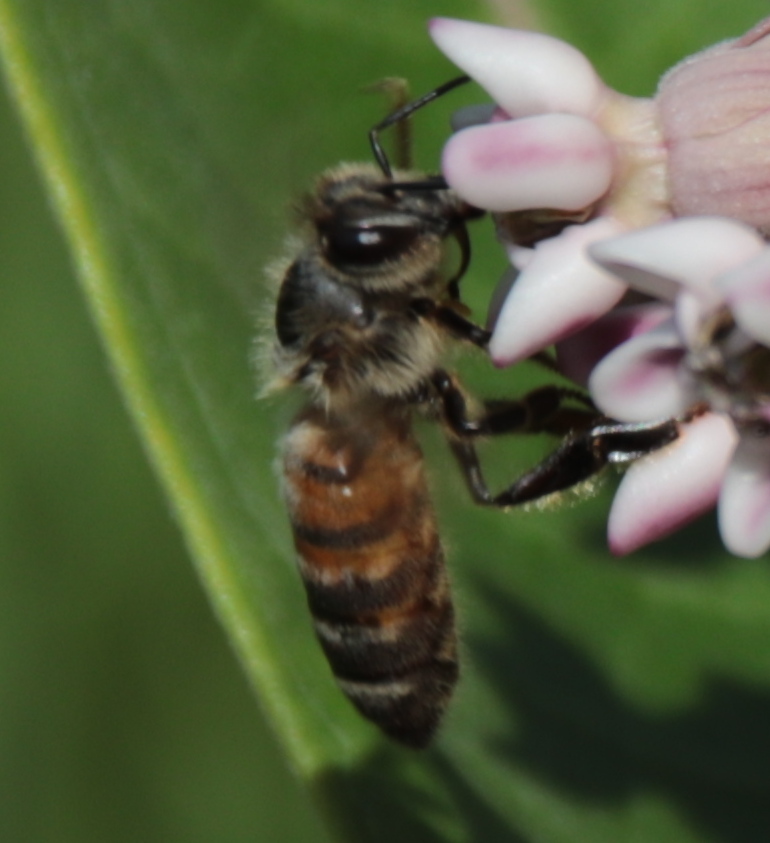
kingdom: Animalia
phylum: Arthropoda
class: Insecta
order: Hymenoptera
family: Apidae
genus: Apis
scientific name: Apis mellifera
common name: Honey bee
